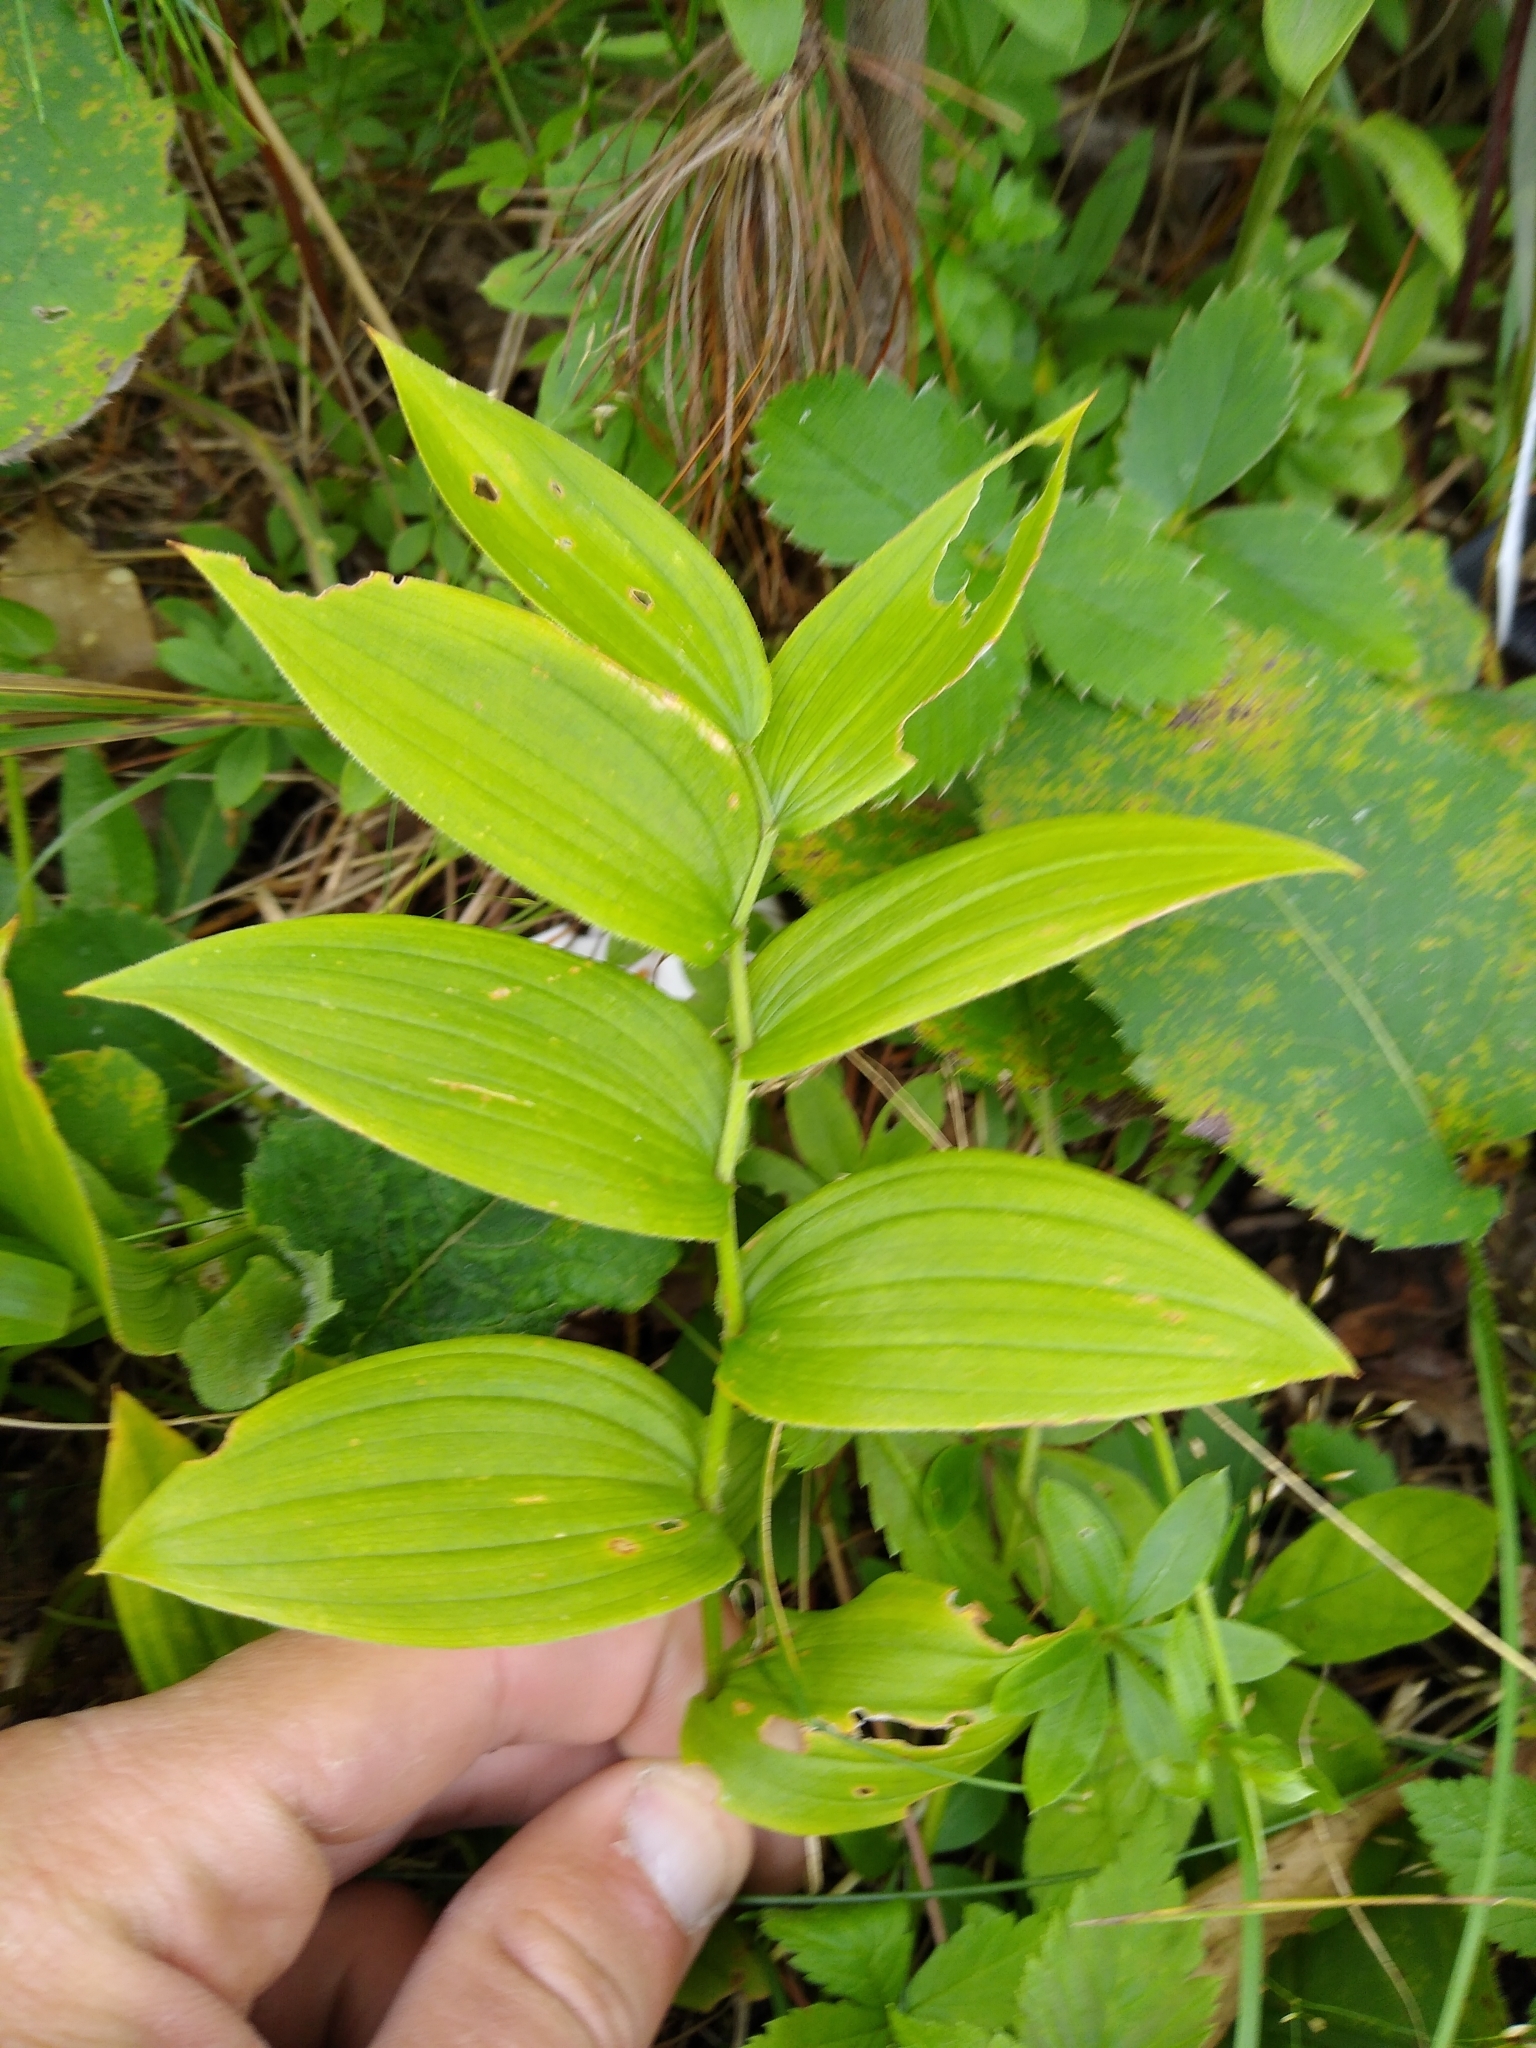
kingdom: Plantae
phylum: Tracheophyta
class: Liliopsida
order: Liliales
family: Liliaceae
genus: Streptopus
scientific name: Streptopus lanceolatus
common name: Rose mandarin
